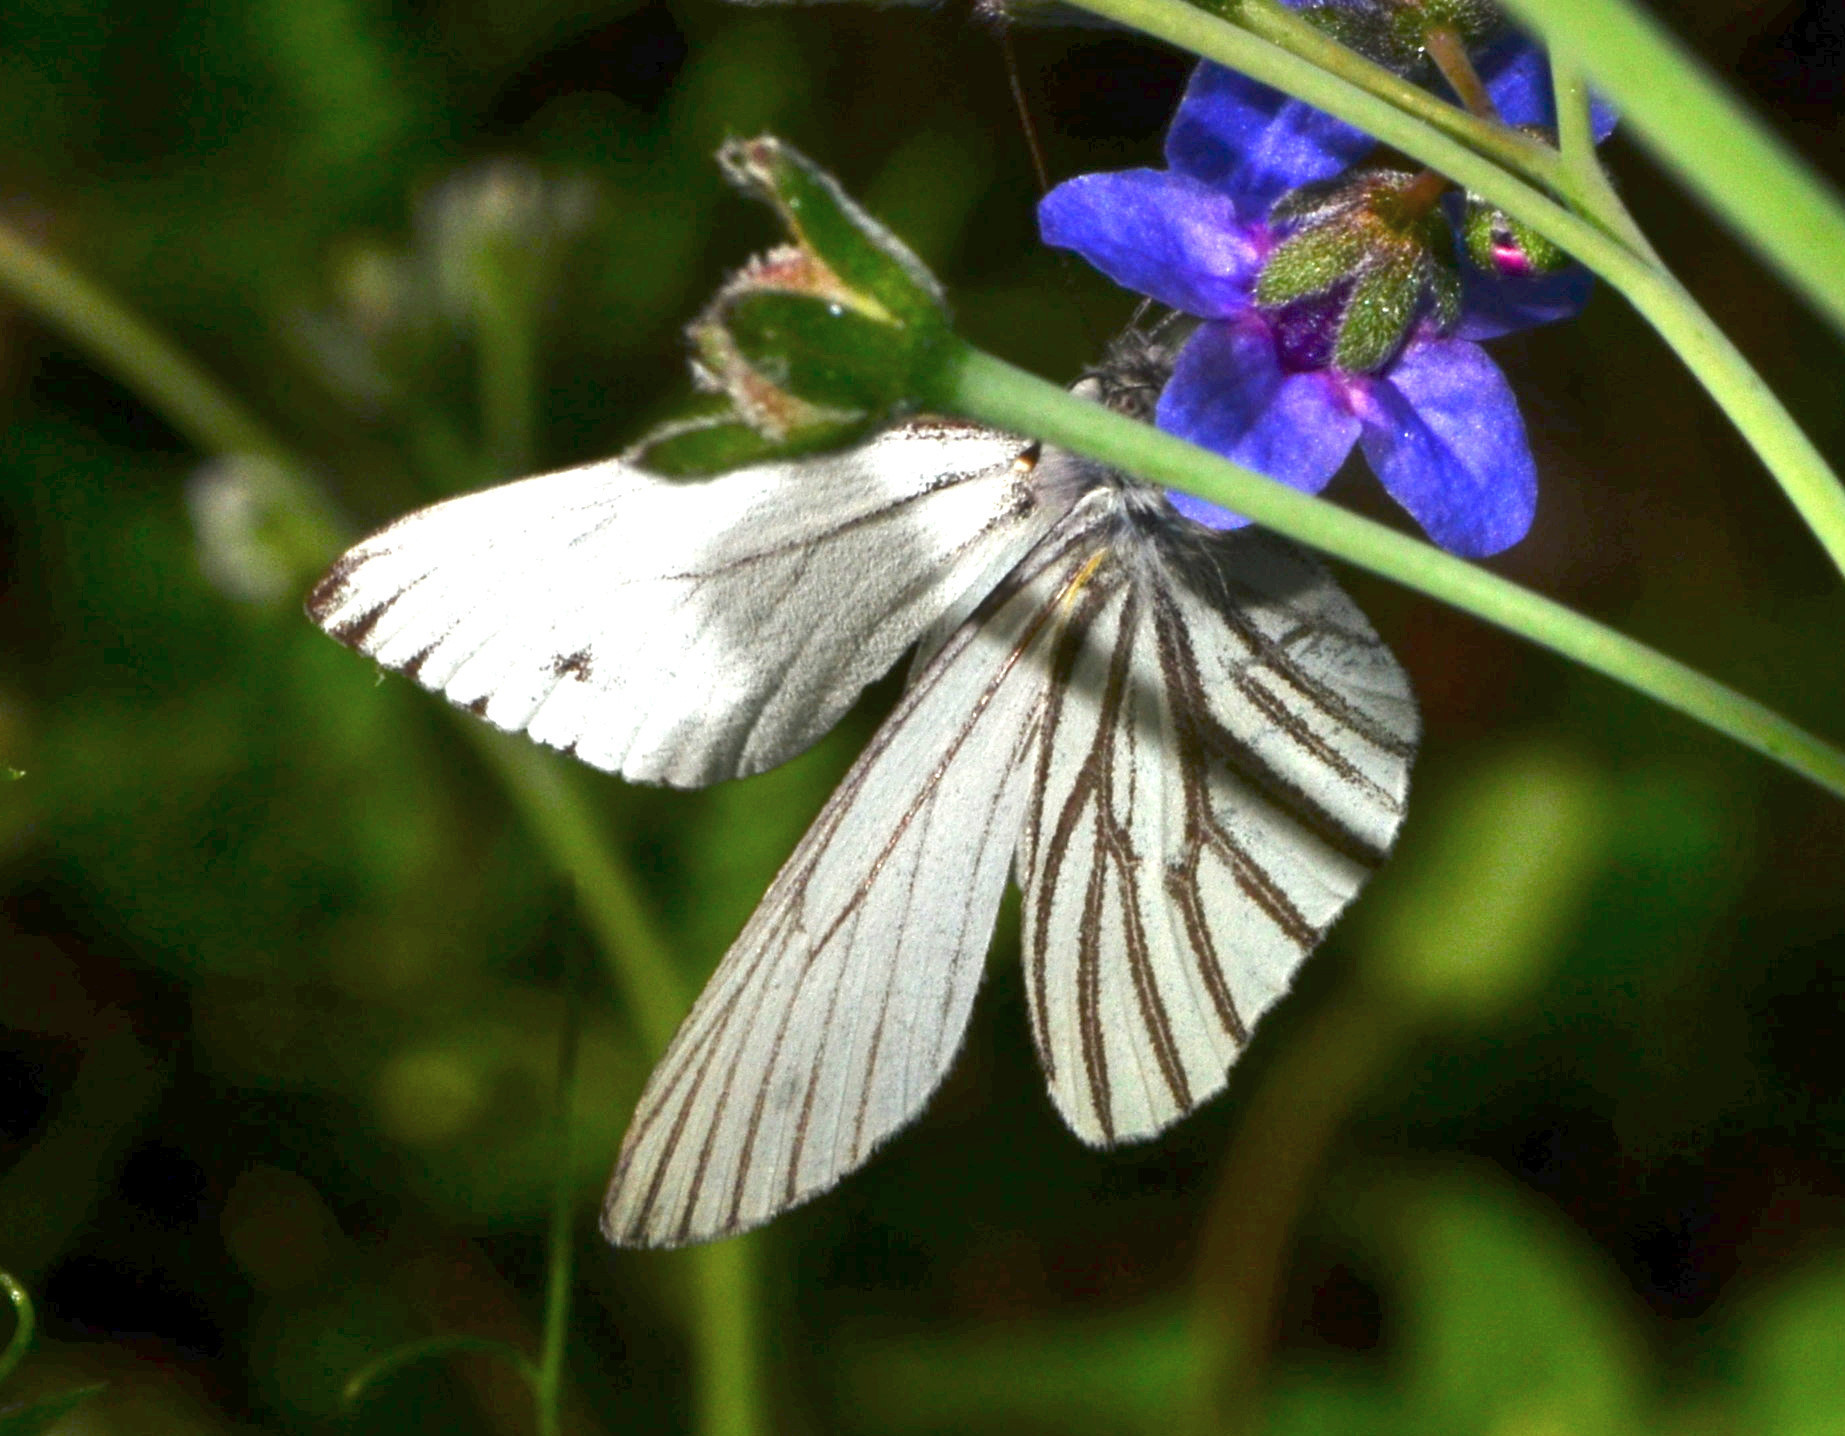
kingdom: Animalia
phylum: Arthropoda
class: Insecta
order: Lepidoptera
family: Pieridae
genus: Pieris
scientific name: Pieris marginalis
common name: Margined white
